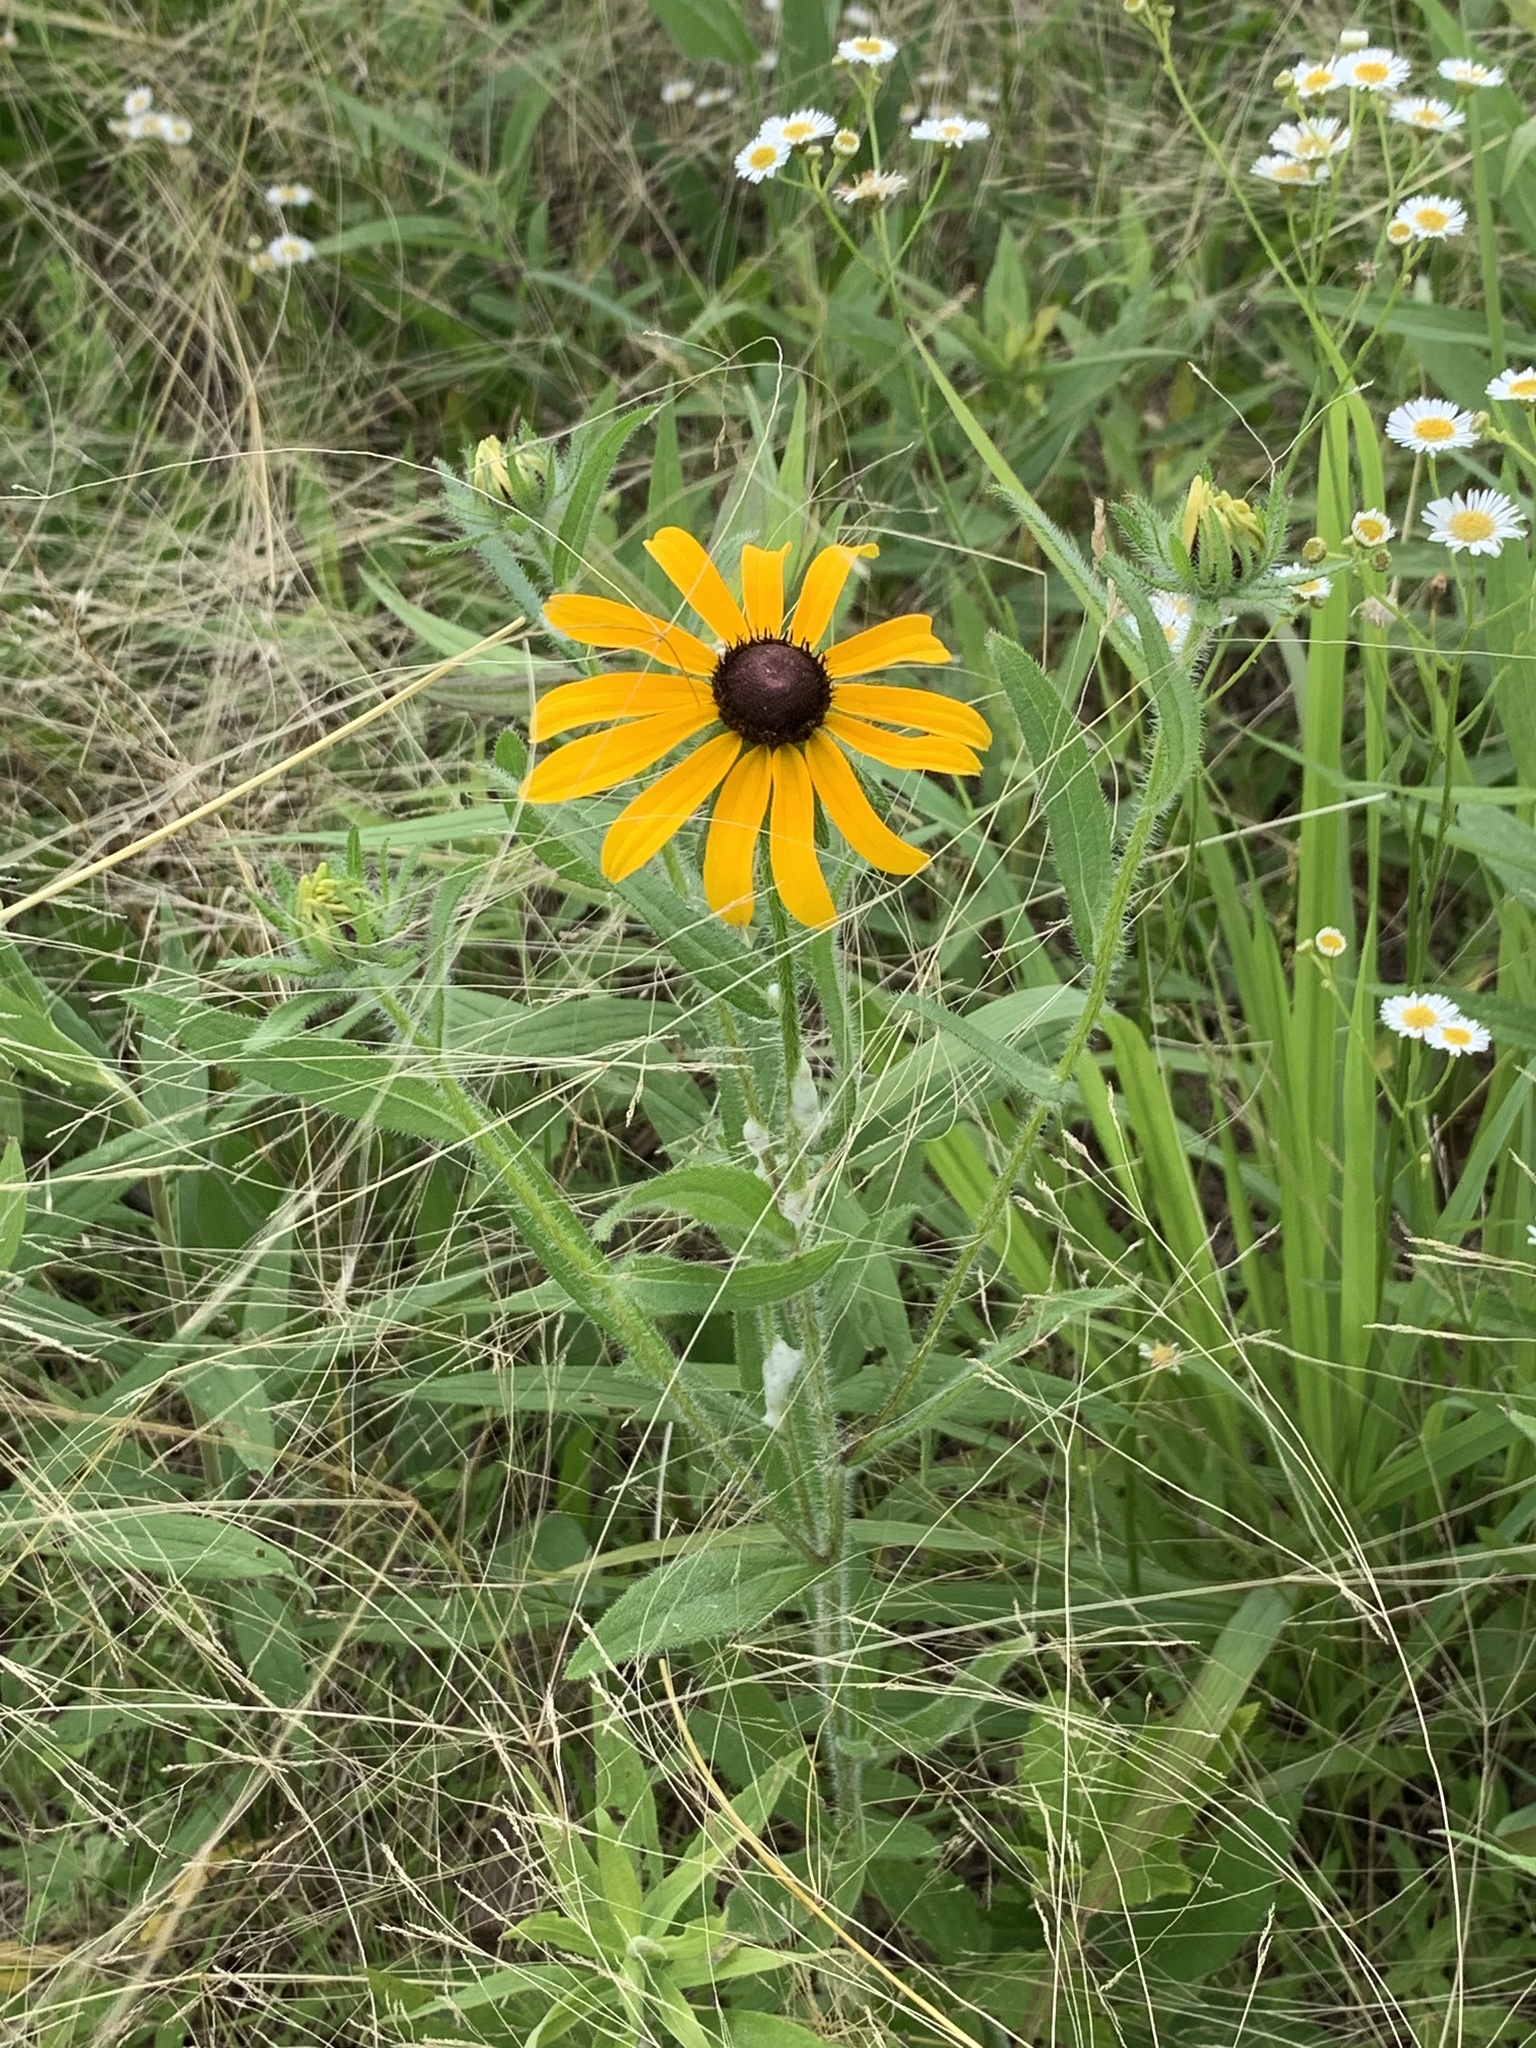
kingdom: Plantae
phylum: Tracheophyta
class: Magnoliopsida
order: Asterales
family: Asteraceae
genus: Rudbeckia
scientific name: Rudbeckia hirta
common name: Black-eyed-susan
